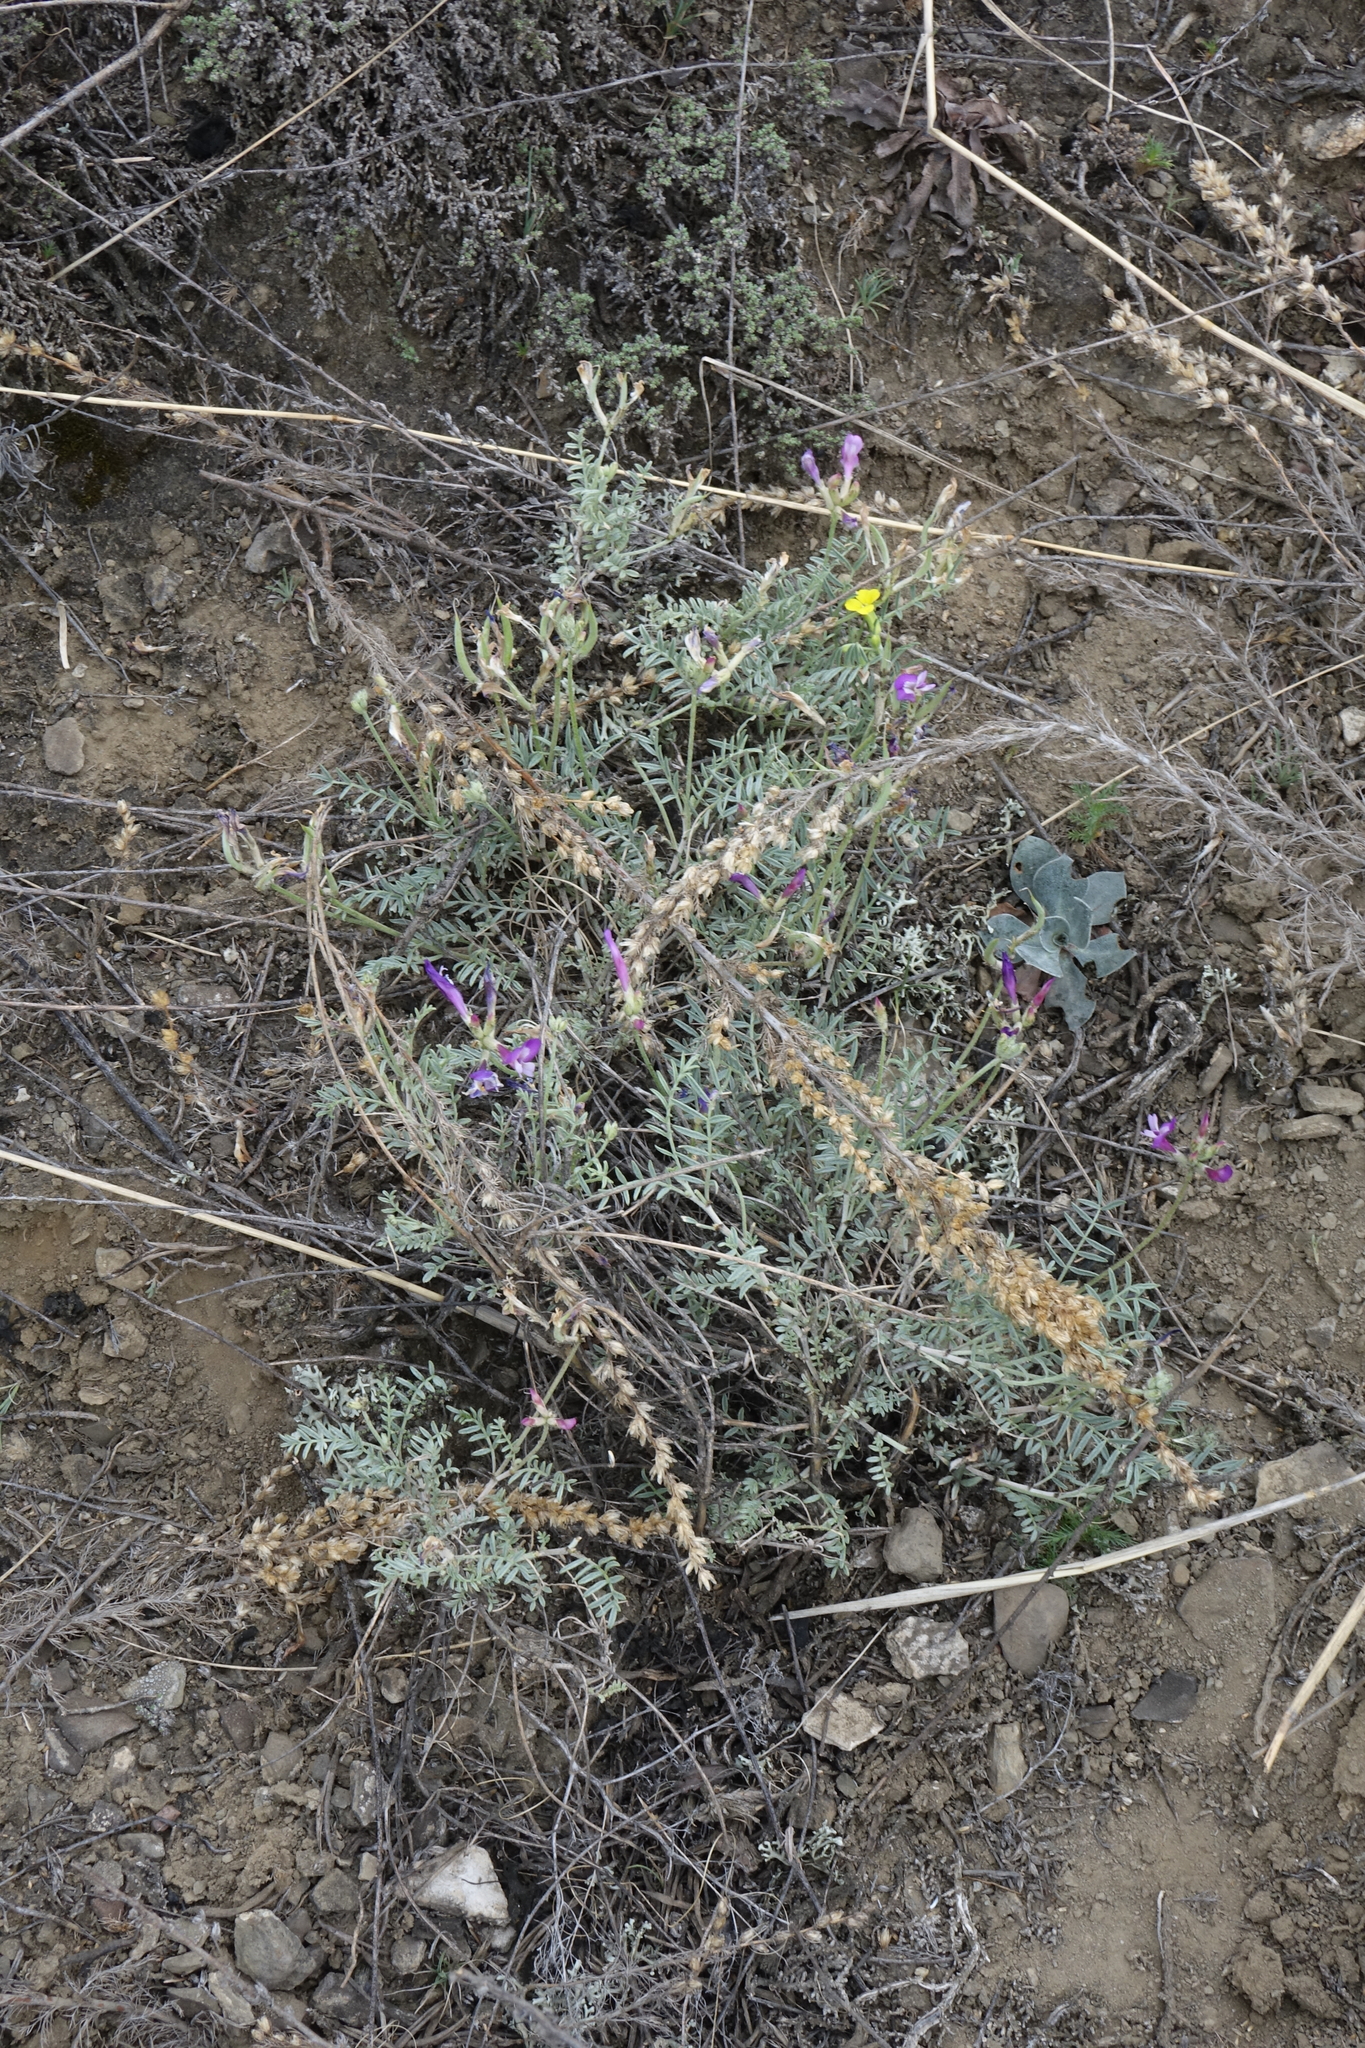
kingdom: Plantae
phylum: Tracheophyta
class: Magnoliopsida
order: Fabales
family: Fabaceae
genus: Astragalus
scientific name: Astragalus stenoceras
